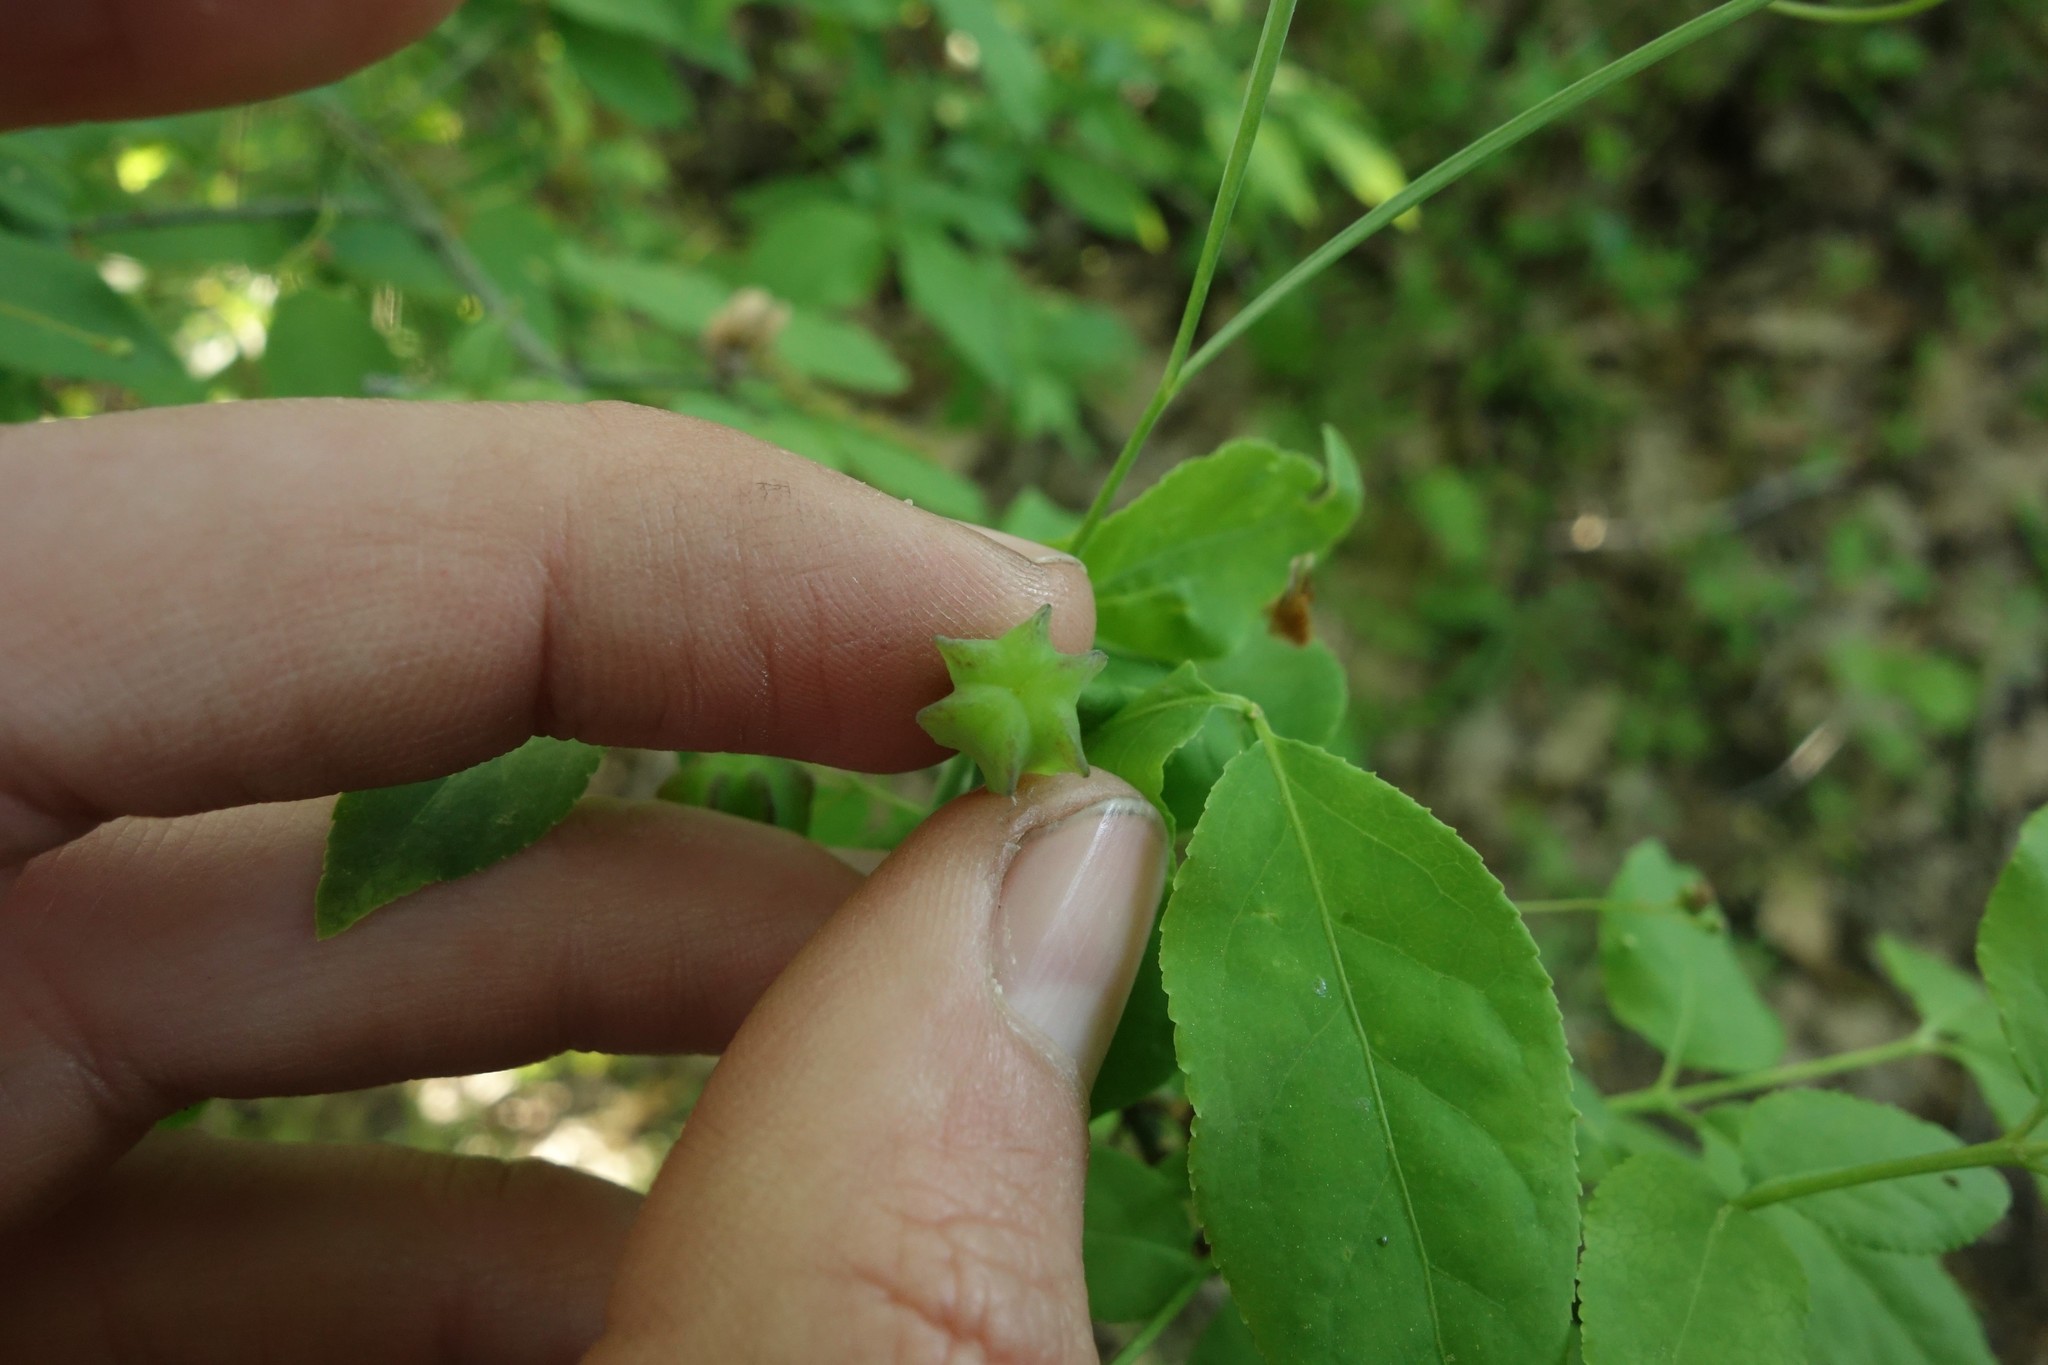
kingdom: Plantae
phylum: Tracheophyta
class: Liliopsida
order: Liliales
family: Liliaceae
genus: Fritillaria
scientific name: Fritillaria ruthenica
